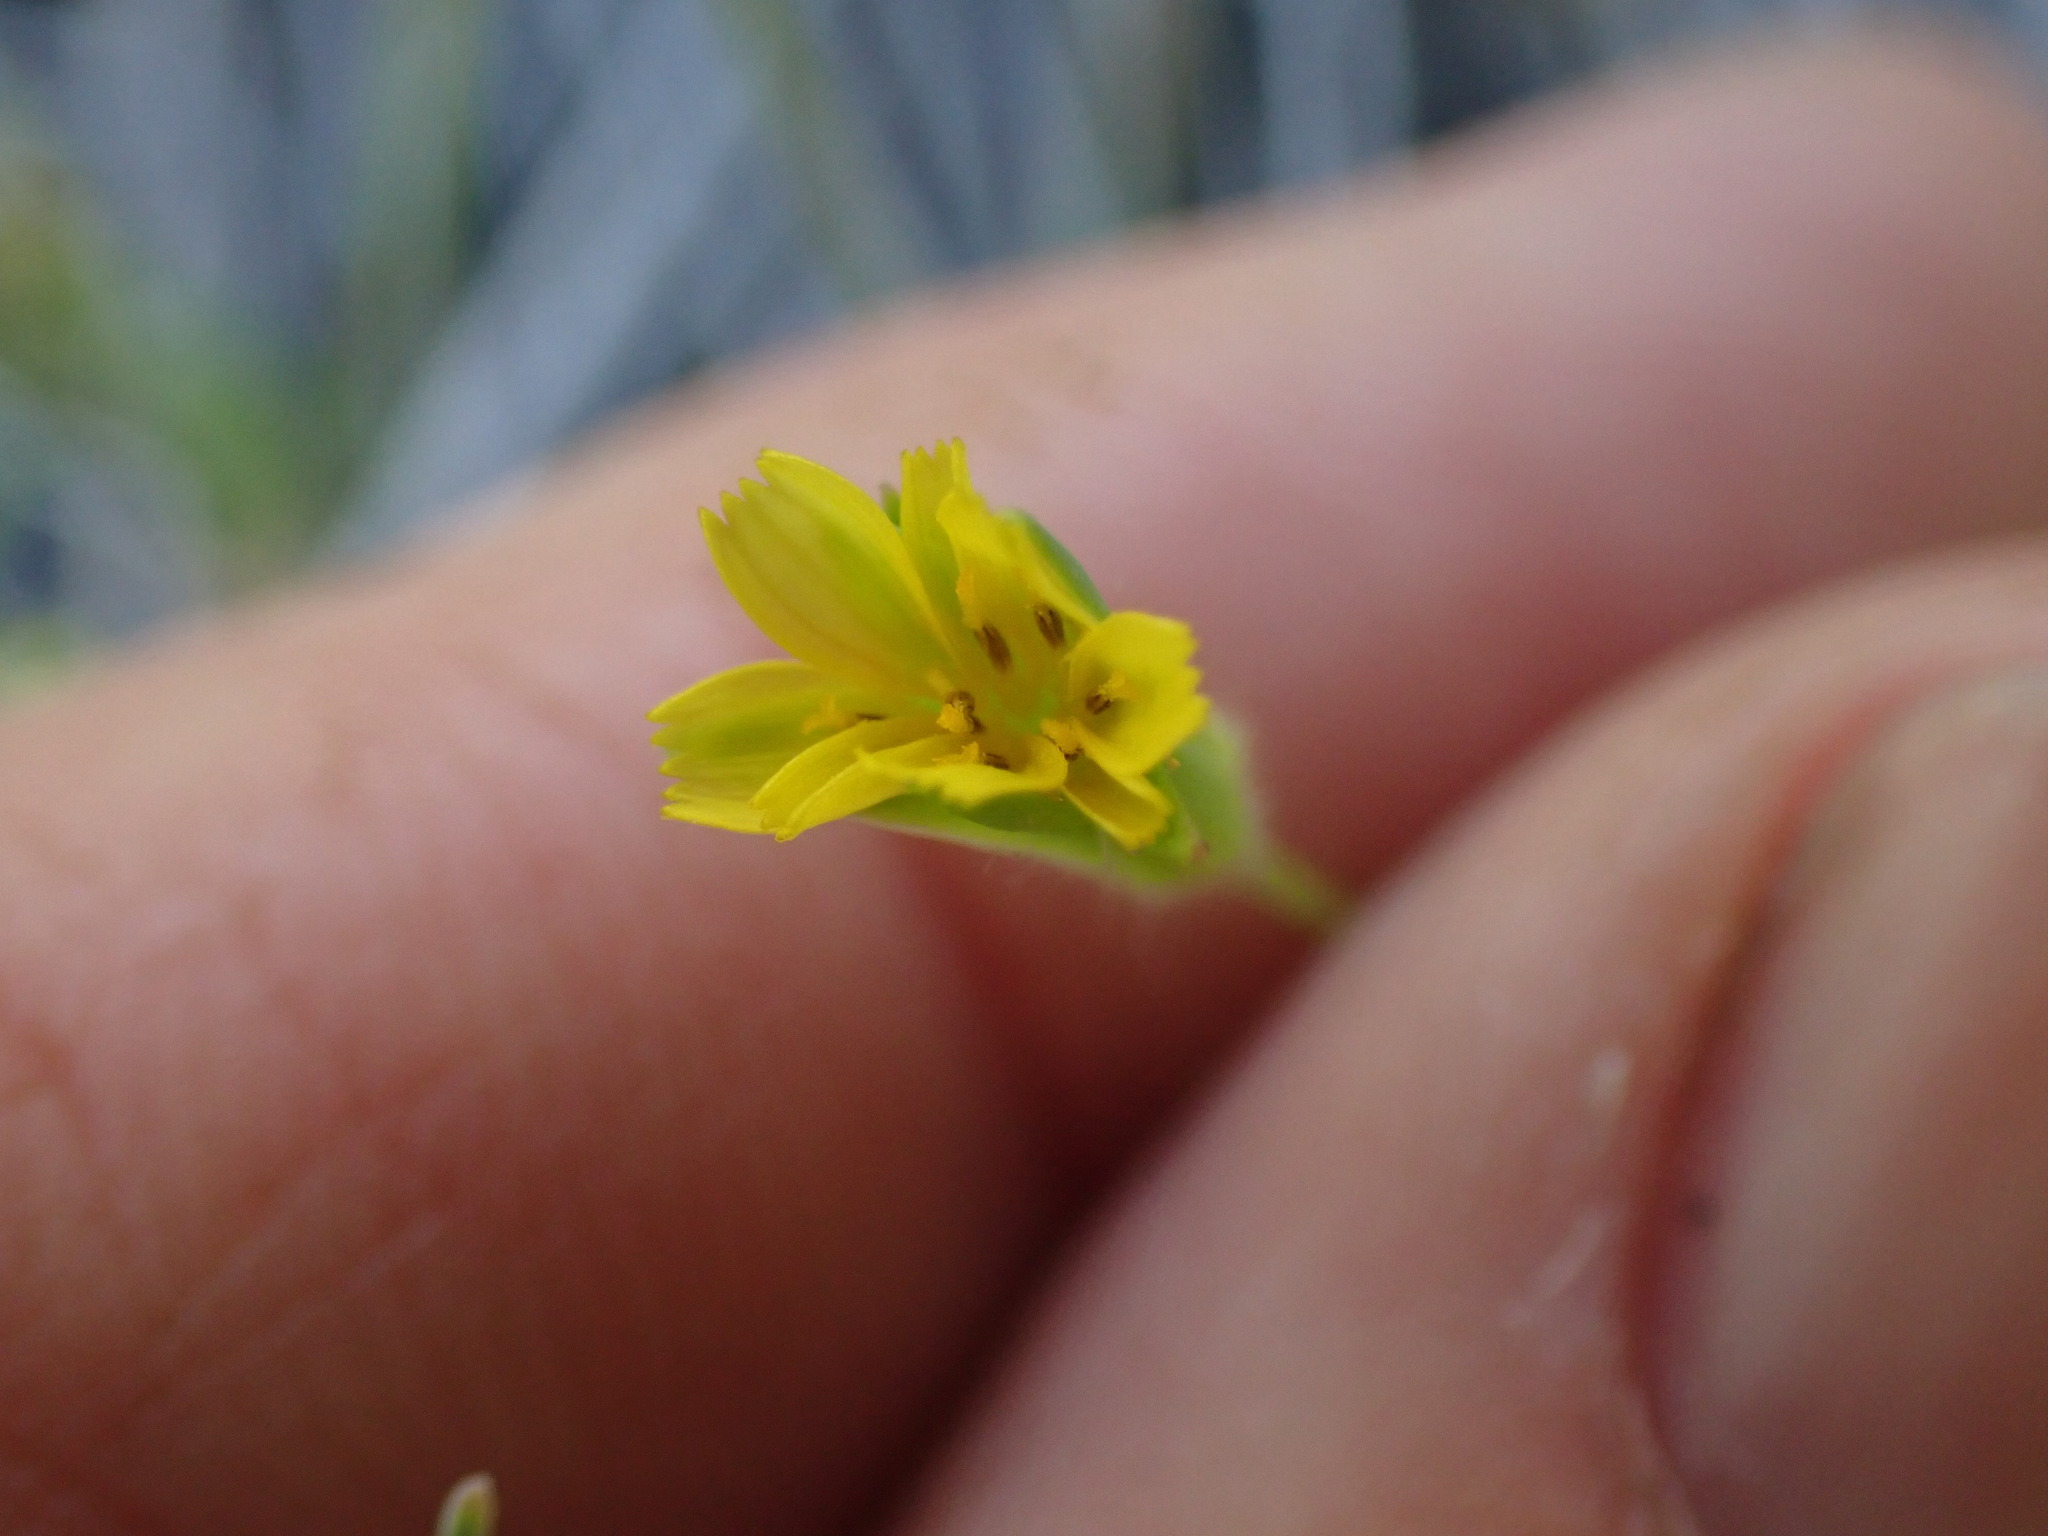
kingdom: Plantae
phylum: Tracheophyta
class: Magnoliopsida
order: Asterales
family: Asteraceae
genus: Agoseris
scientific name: Agoseris heterophylla
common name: Annual agoseris
